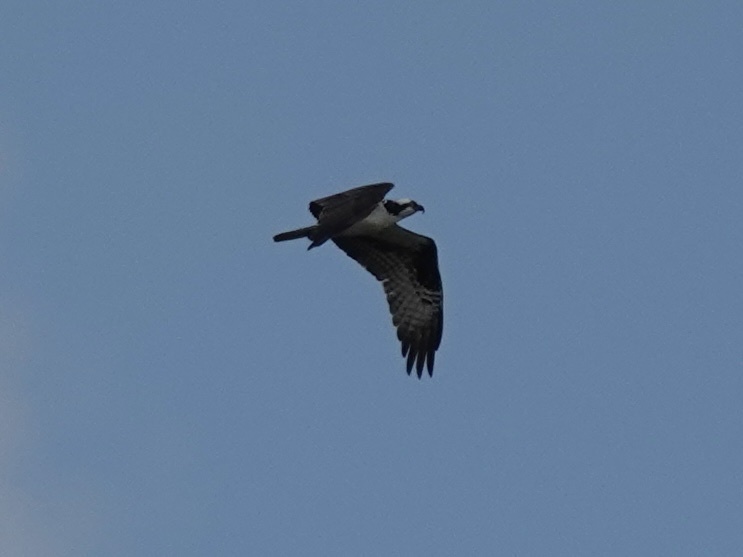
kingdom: Animalia
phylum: Chordata
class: Aves
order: Accipitriformes
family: Pandionidae
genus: Pandion
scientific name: Pandion haliaetus
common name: Osprey
